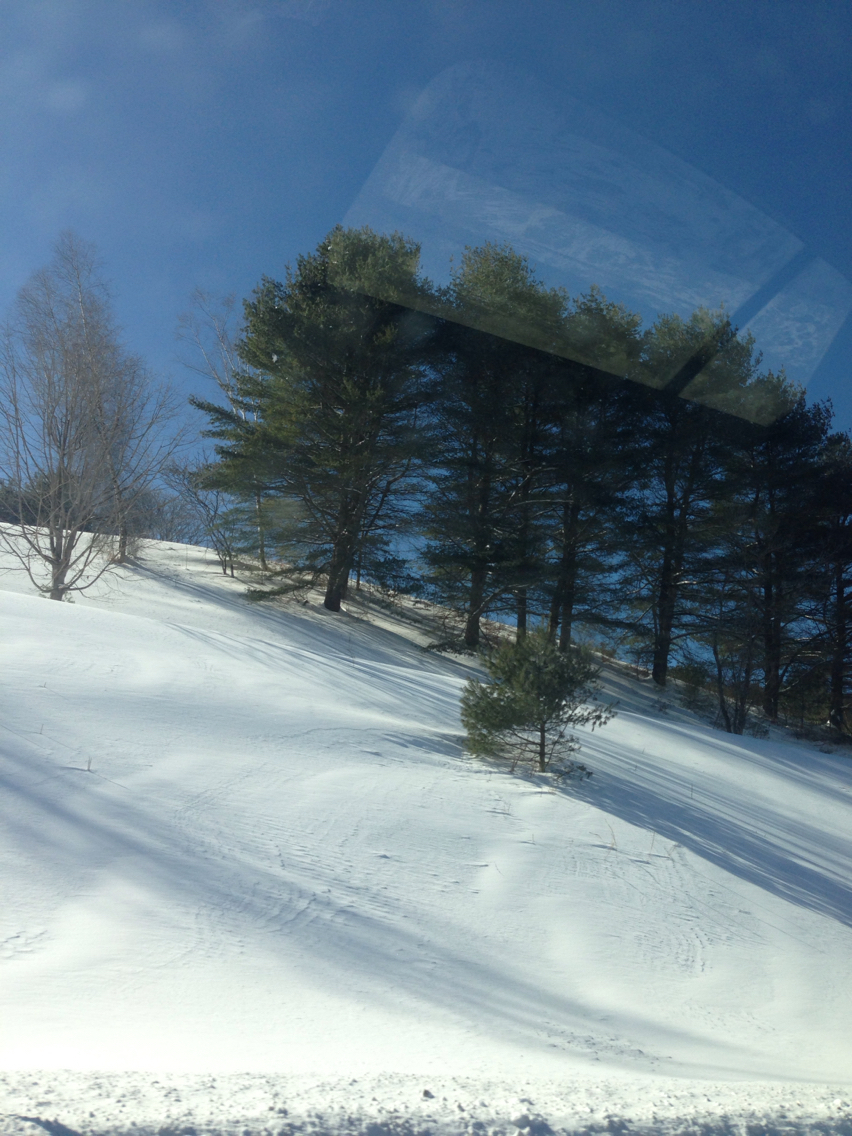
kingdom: Plantae
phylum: Tracheophyta
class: Pinopsida
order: Pinales
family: Pinaceae
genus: Pinus
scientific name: Pinus strobus
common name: Weymouth pine
